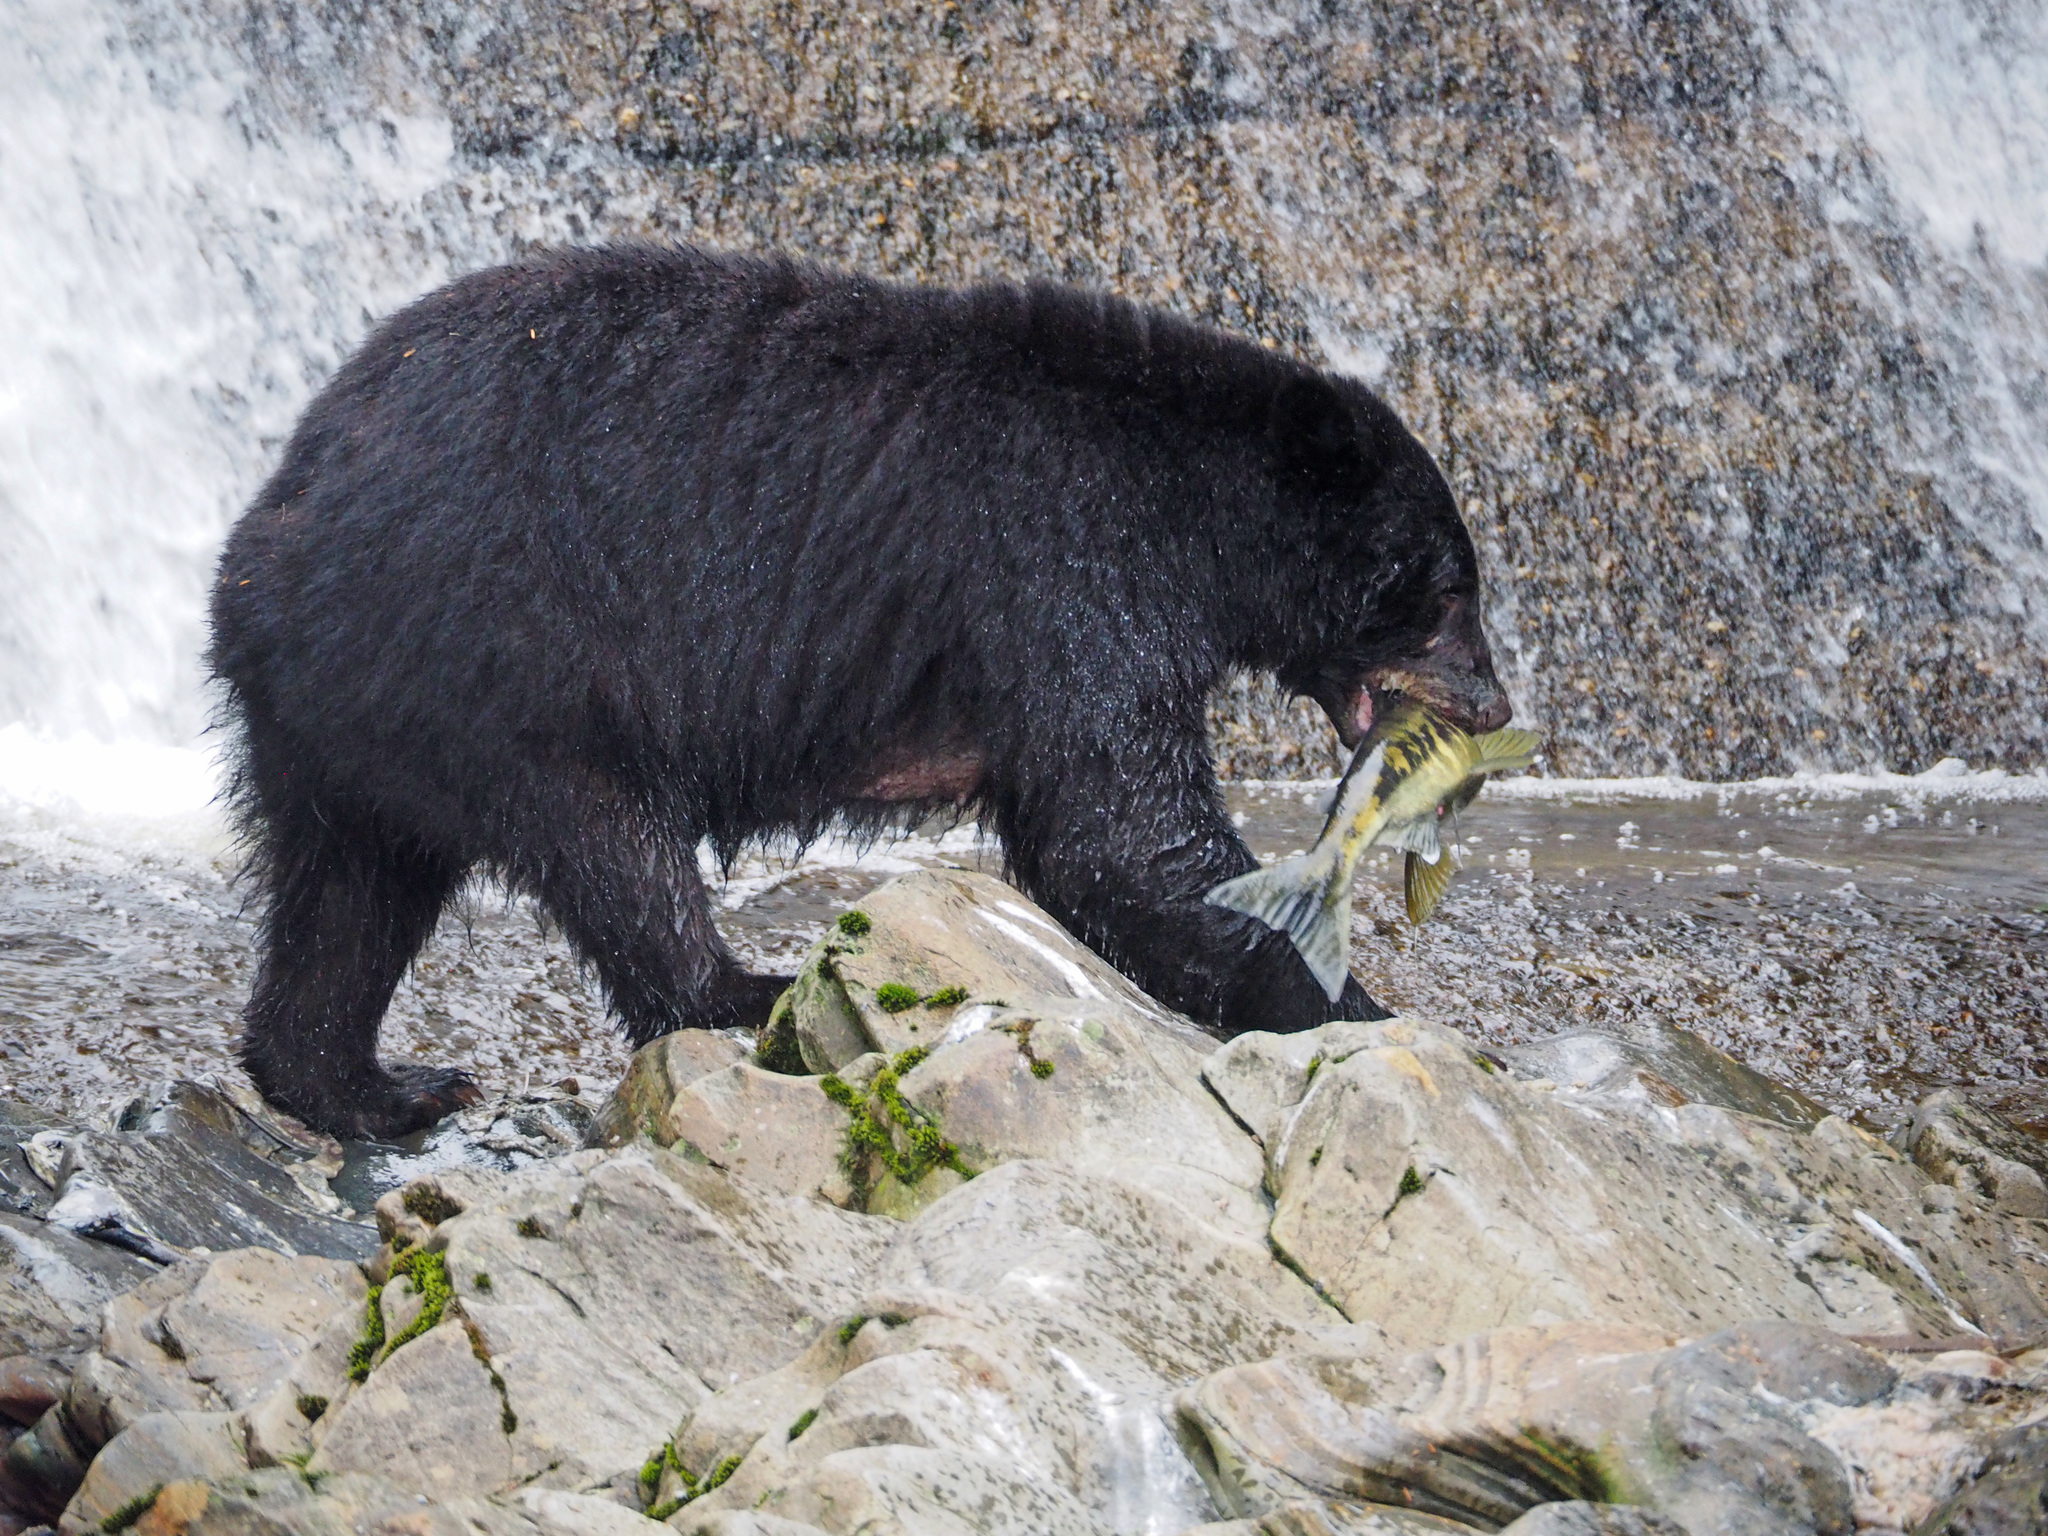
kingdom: Animalia
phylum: Chordata
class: Mammalia
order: Carnivora
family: Ursidae
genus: Ursus
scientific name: Ursus americanus
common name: American black bear
